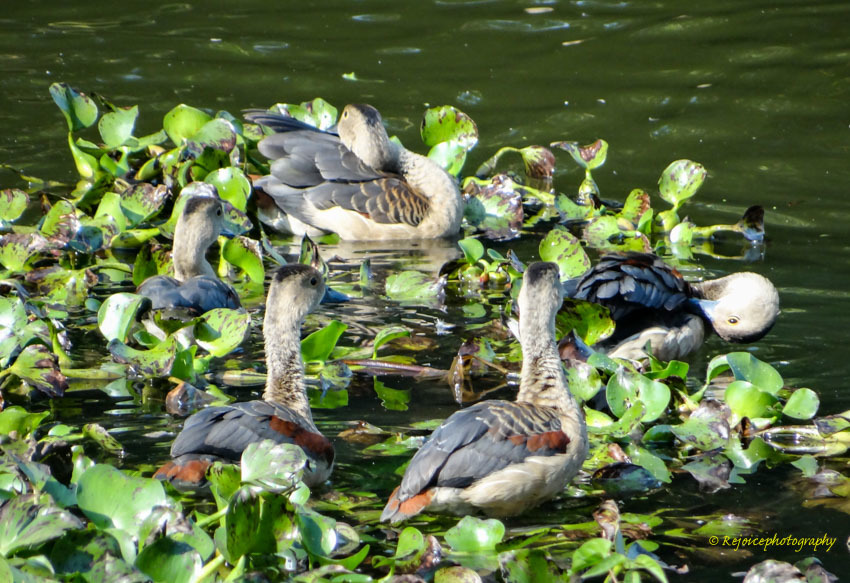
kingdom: Animalia
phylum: Chordata
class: Aves
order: Anseriformes
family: Anatidae
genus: Dendrocygna
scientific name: Dendrocygna javanica
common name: Lesser whistling-duck
